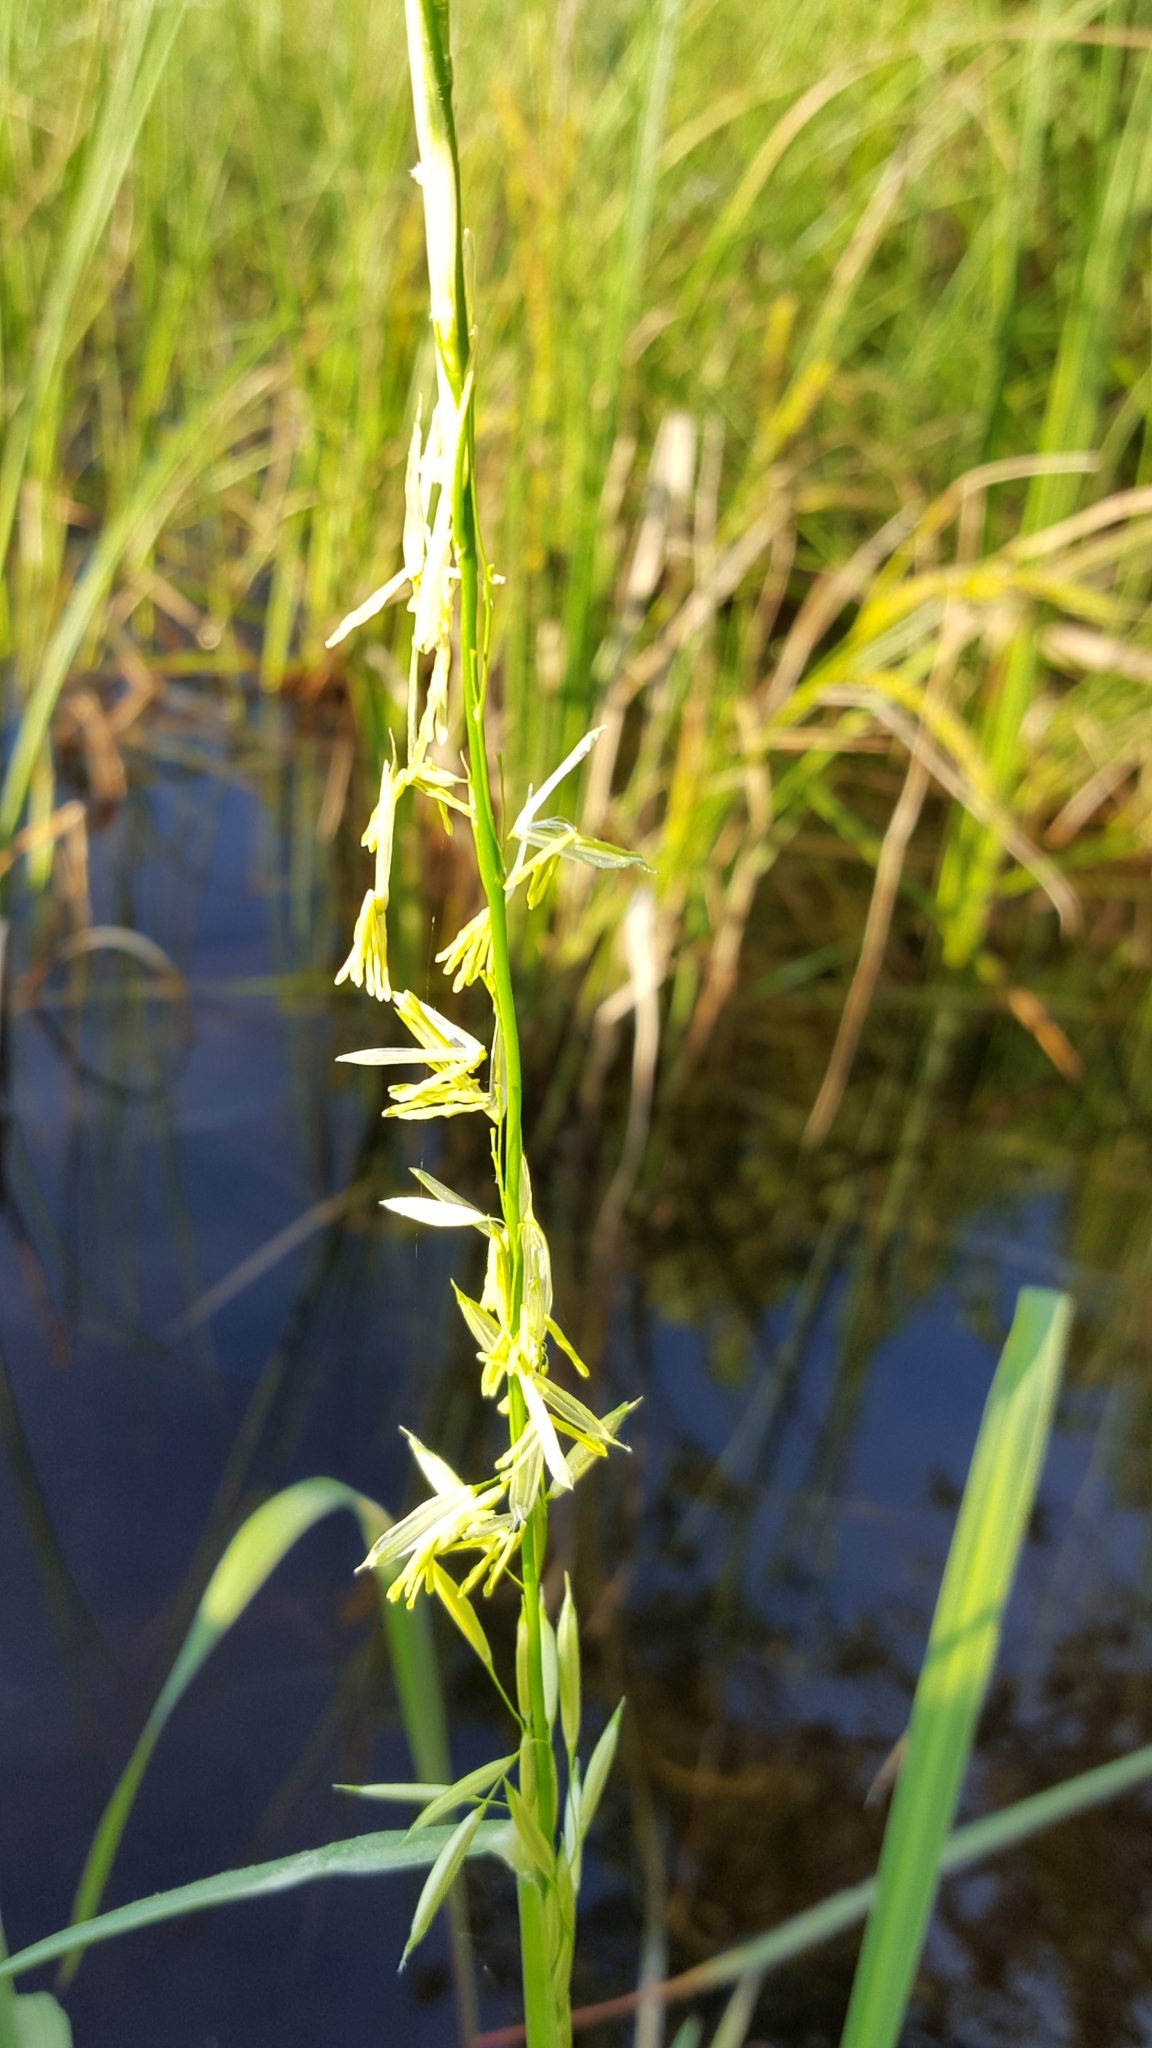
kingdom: Plantae
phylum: Tracheophyta
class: Liliopsida
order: Poales
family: Poaceae
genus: Zizania
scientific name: Zizania palustris
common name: Northern wild rice
